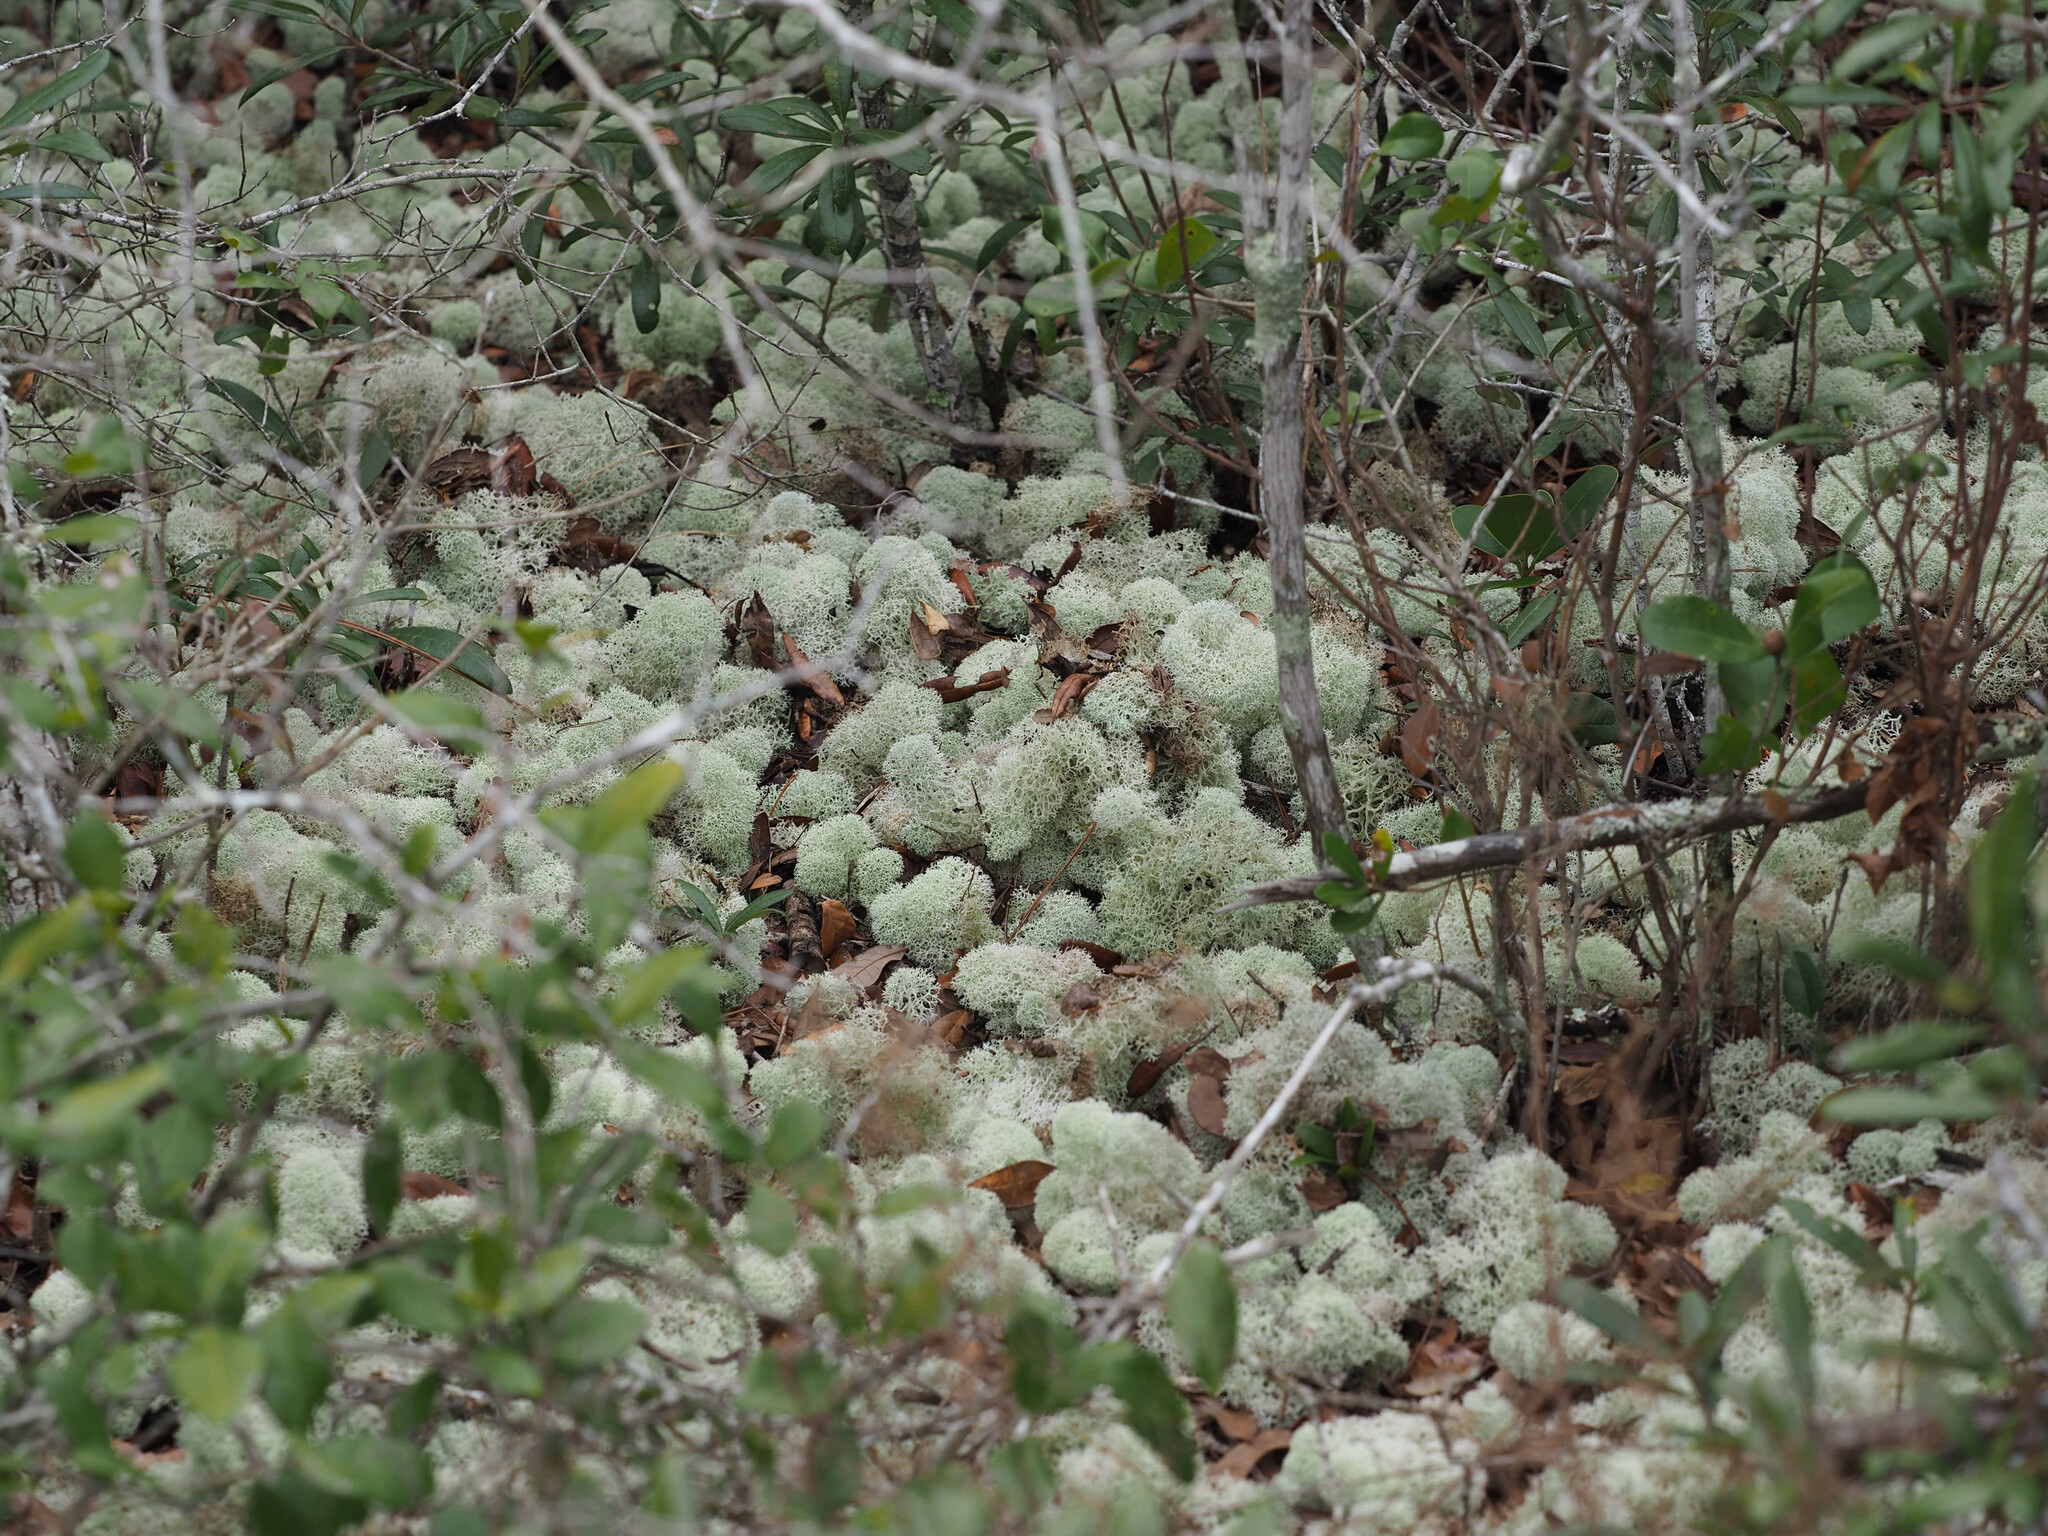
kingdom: Fungi
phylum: Ascomycota
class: Lecanoromycetes
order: Lecanorales
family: Cladoniaceae
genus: Cladonia
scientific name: Cladonia evansii
